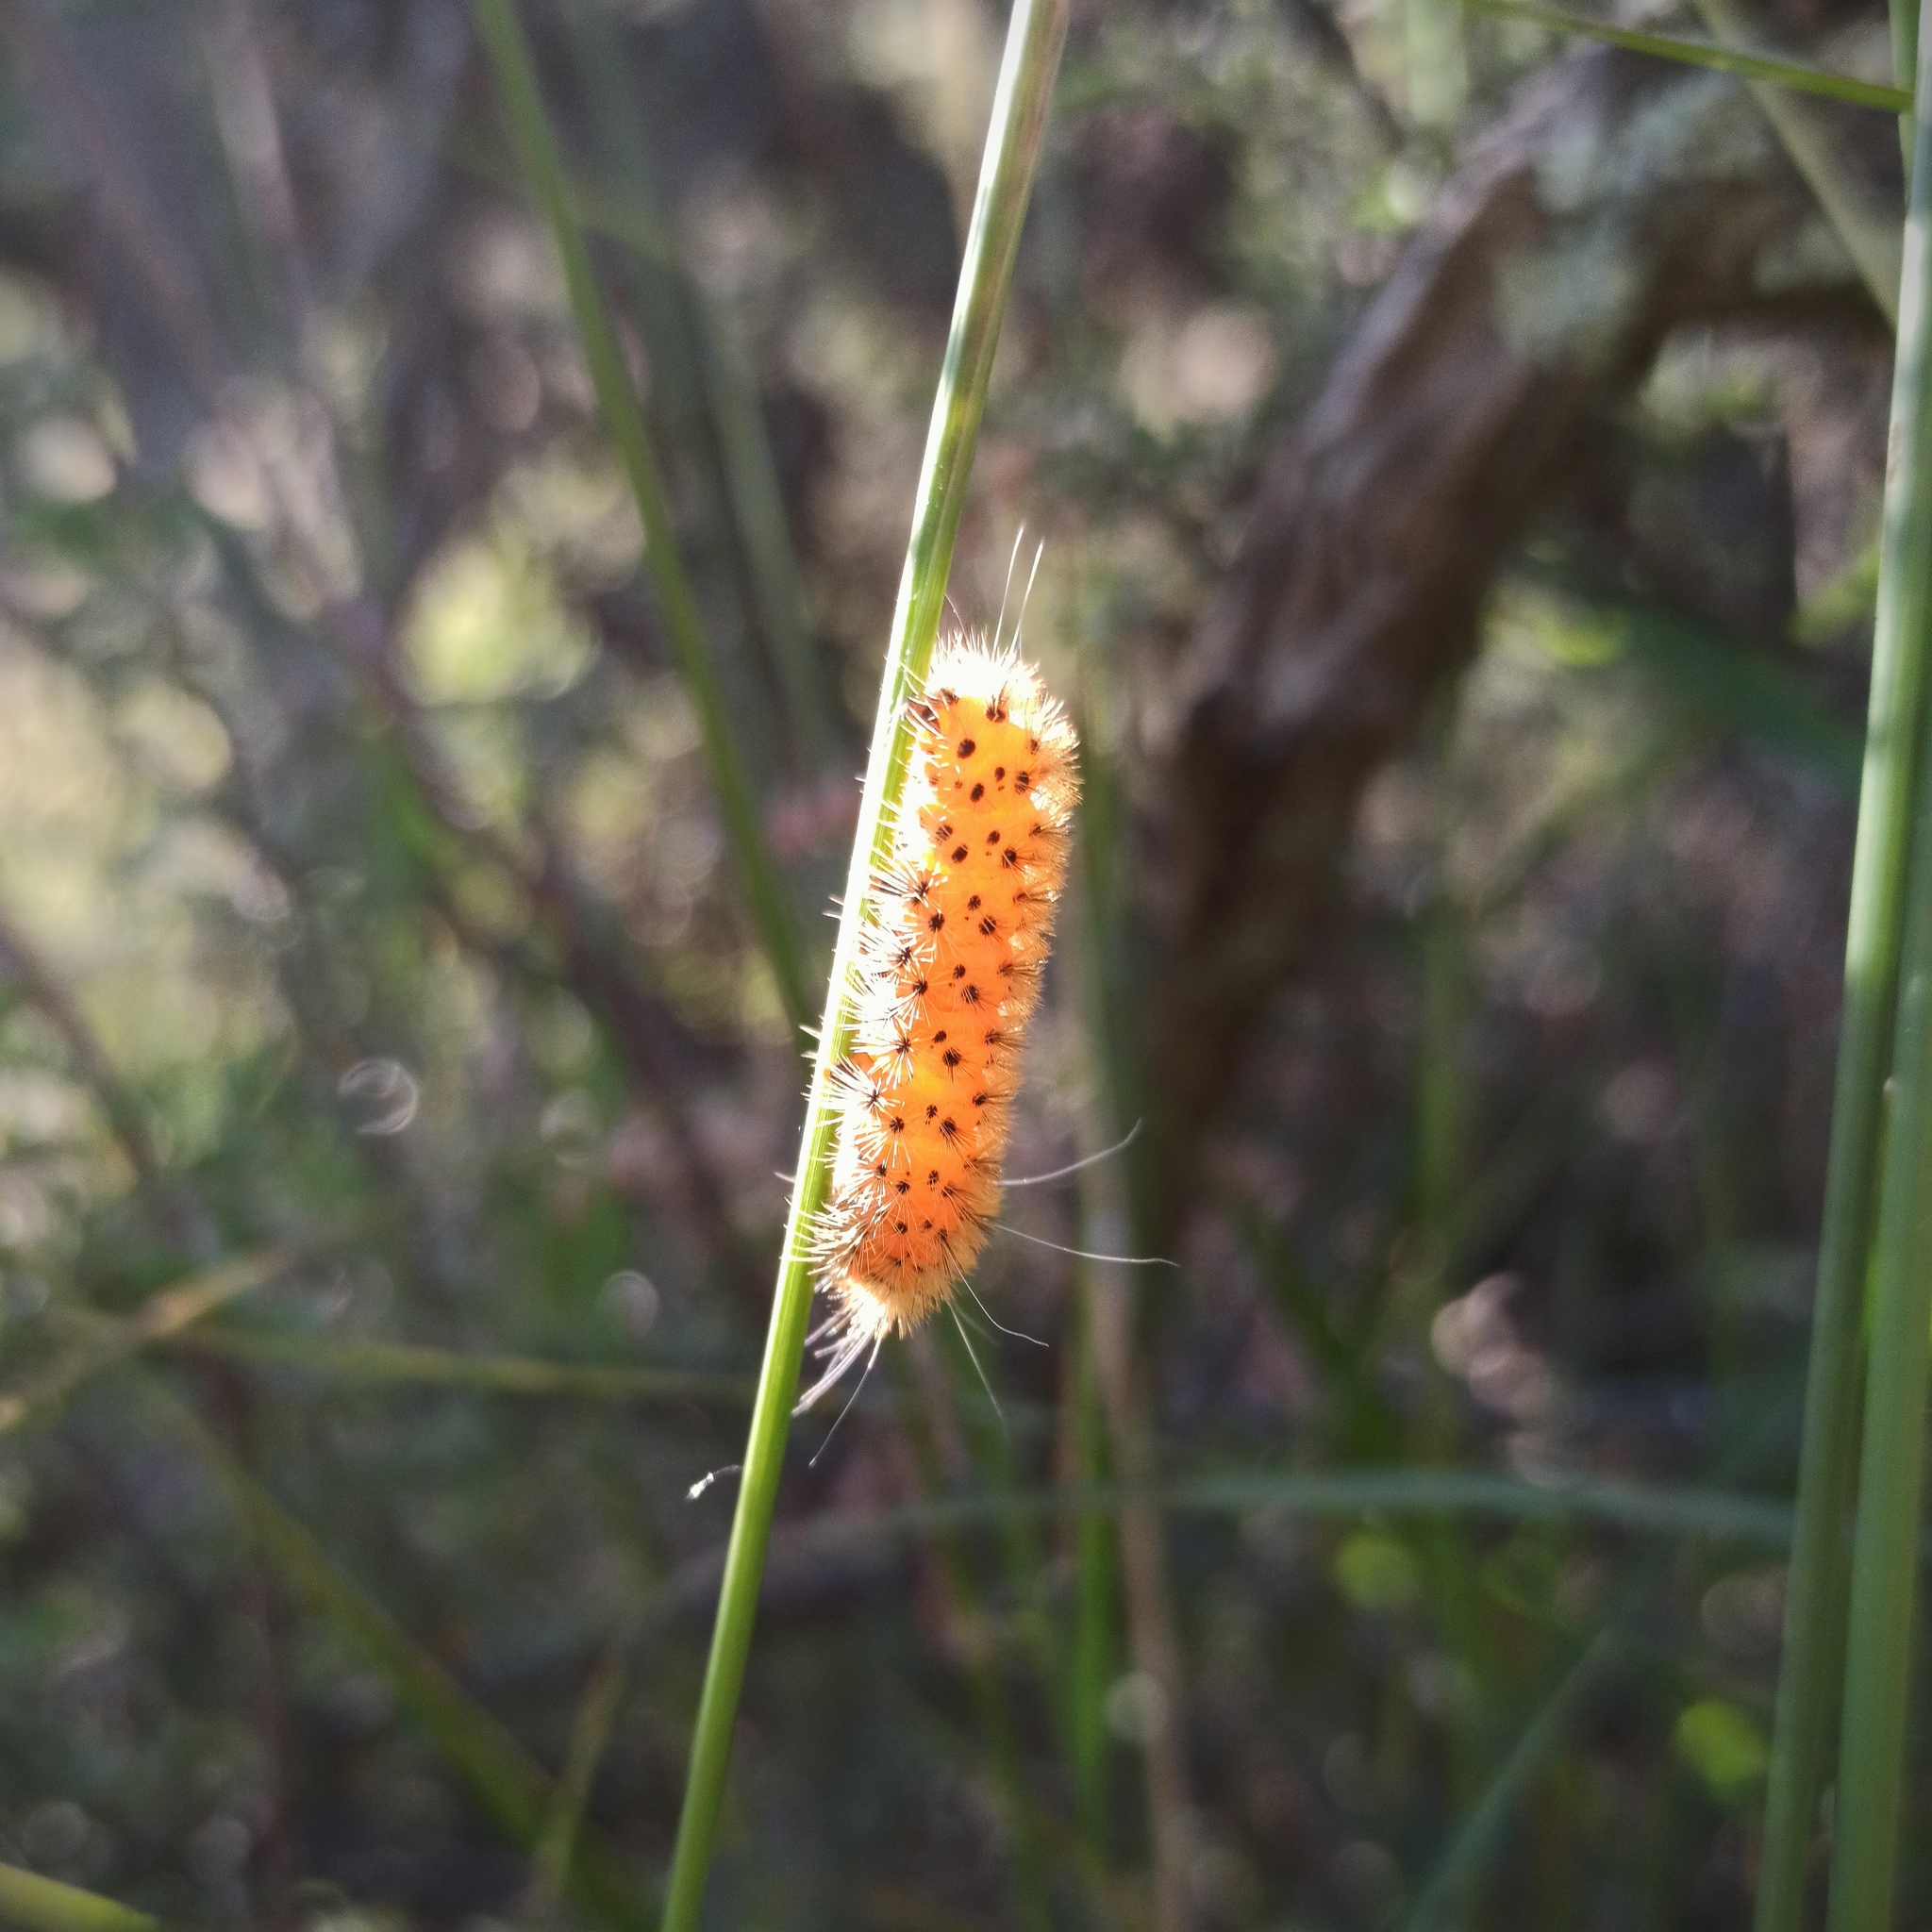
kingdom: Animalia
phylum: Arthropoda
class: Insecta
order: Lepidoptera
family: Erebidae
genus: Lerina
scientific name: Lerina incarnata
